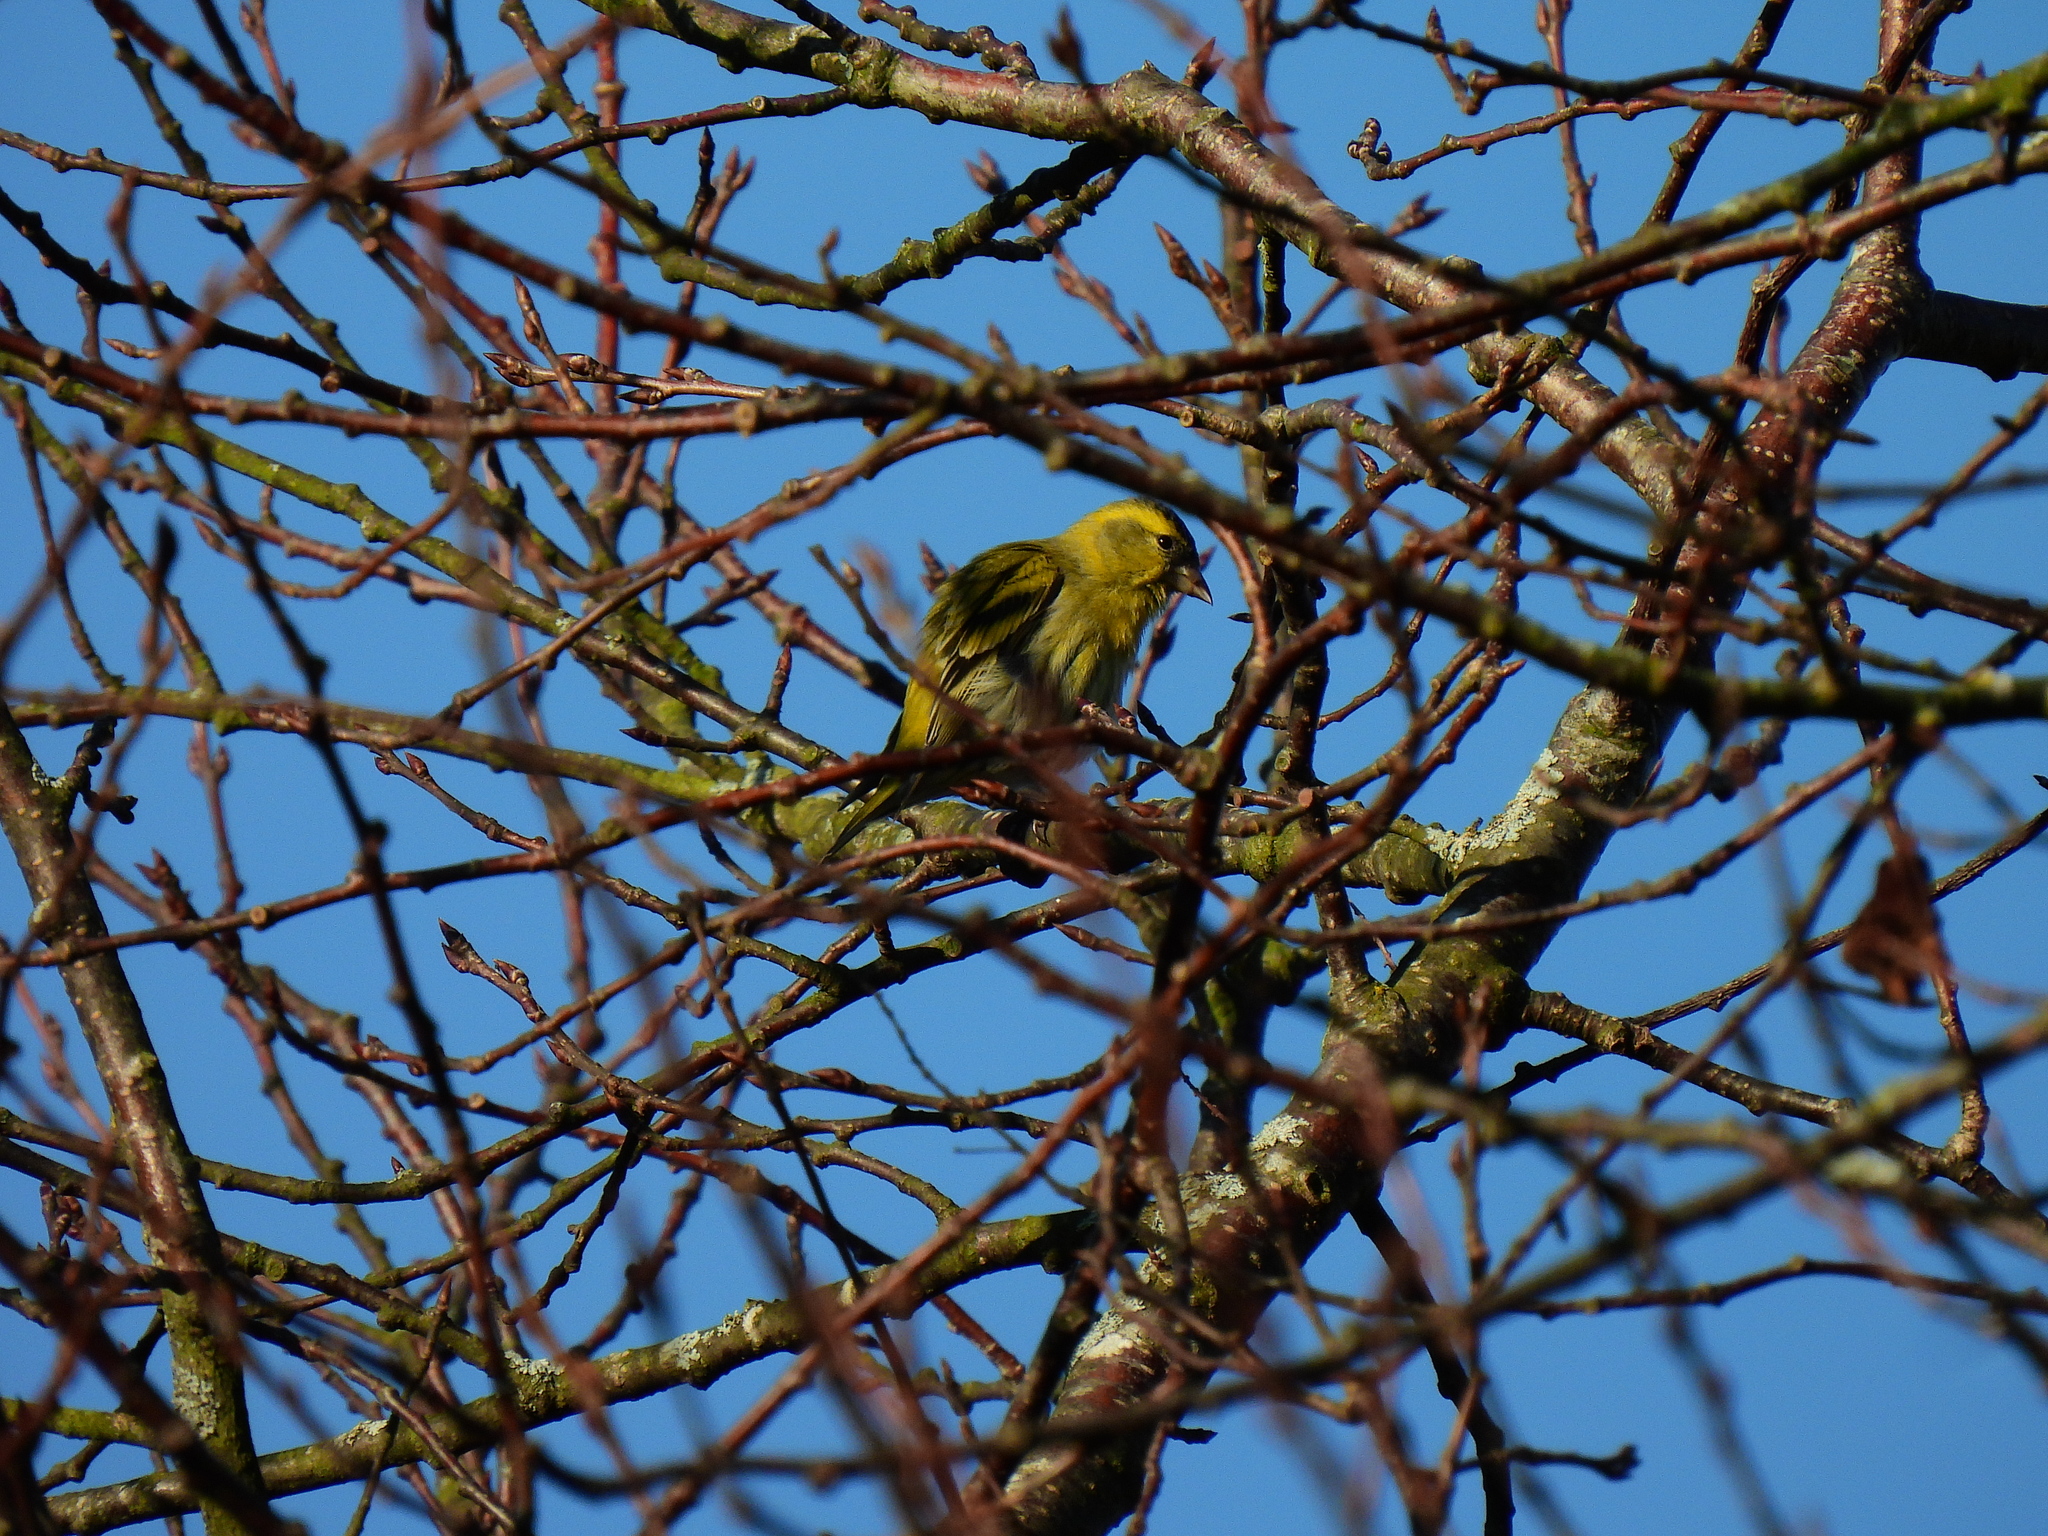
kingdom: Animalia
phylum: Chordata
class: Aves
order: Passeriformes
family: Fringillidae
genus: Spinus
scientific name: Spinus spinus
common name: Eurasian siskin
